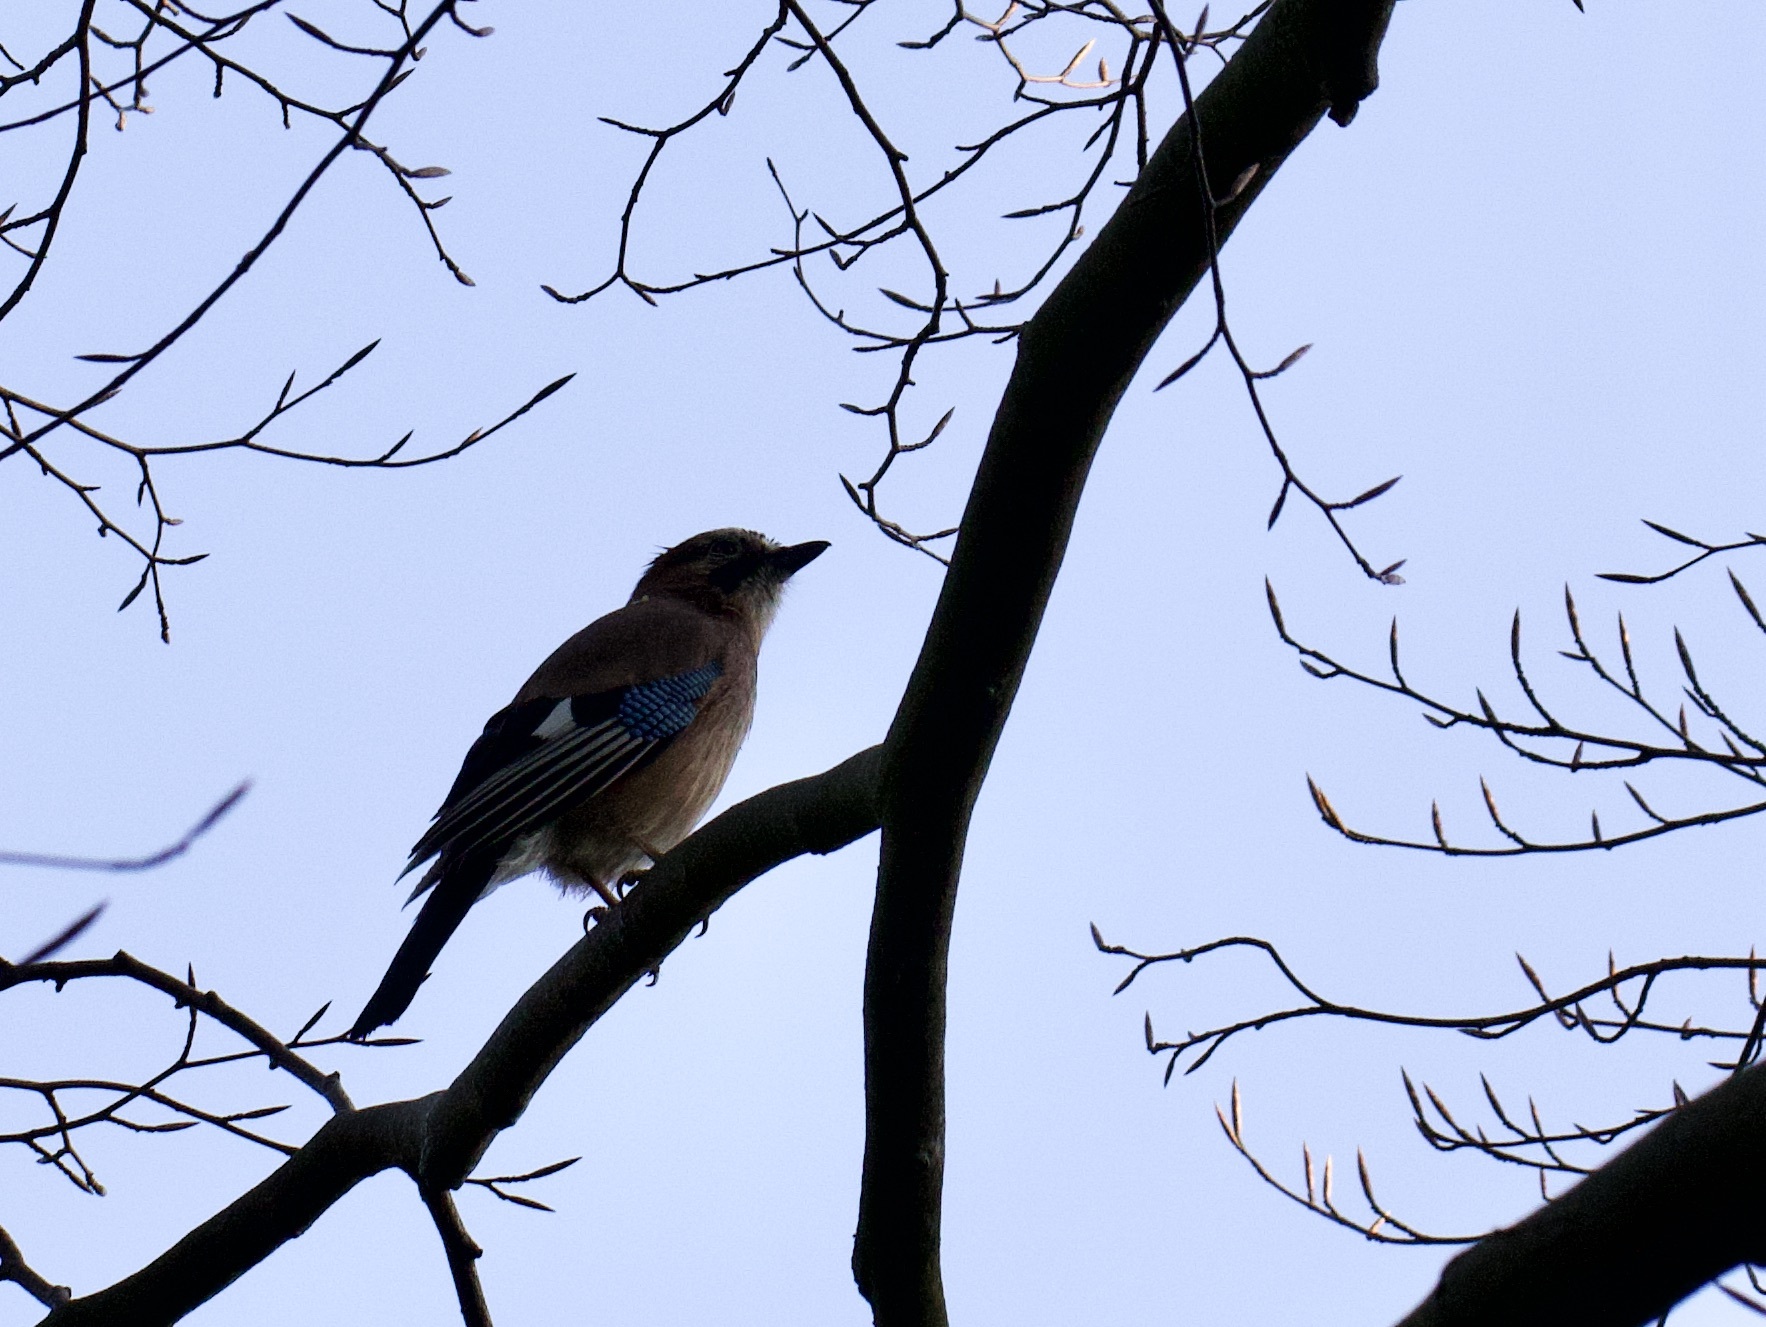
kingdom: Animalia
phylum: Chordata
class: Aves
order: Passeriformes
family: Corvidae
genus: Garrulus
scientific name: Garrulus glandarius
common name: Eurasian jay
